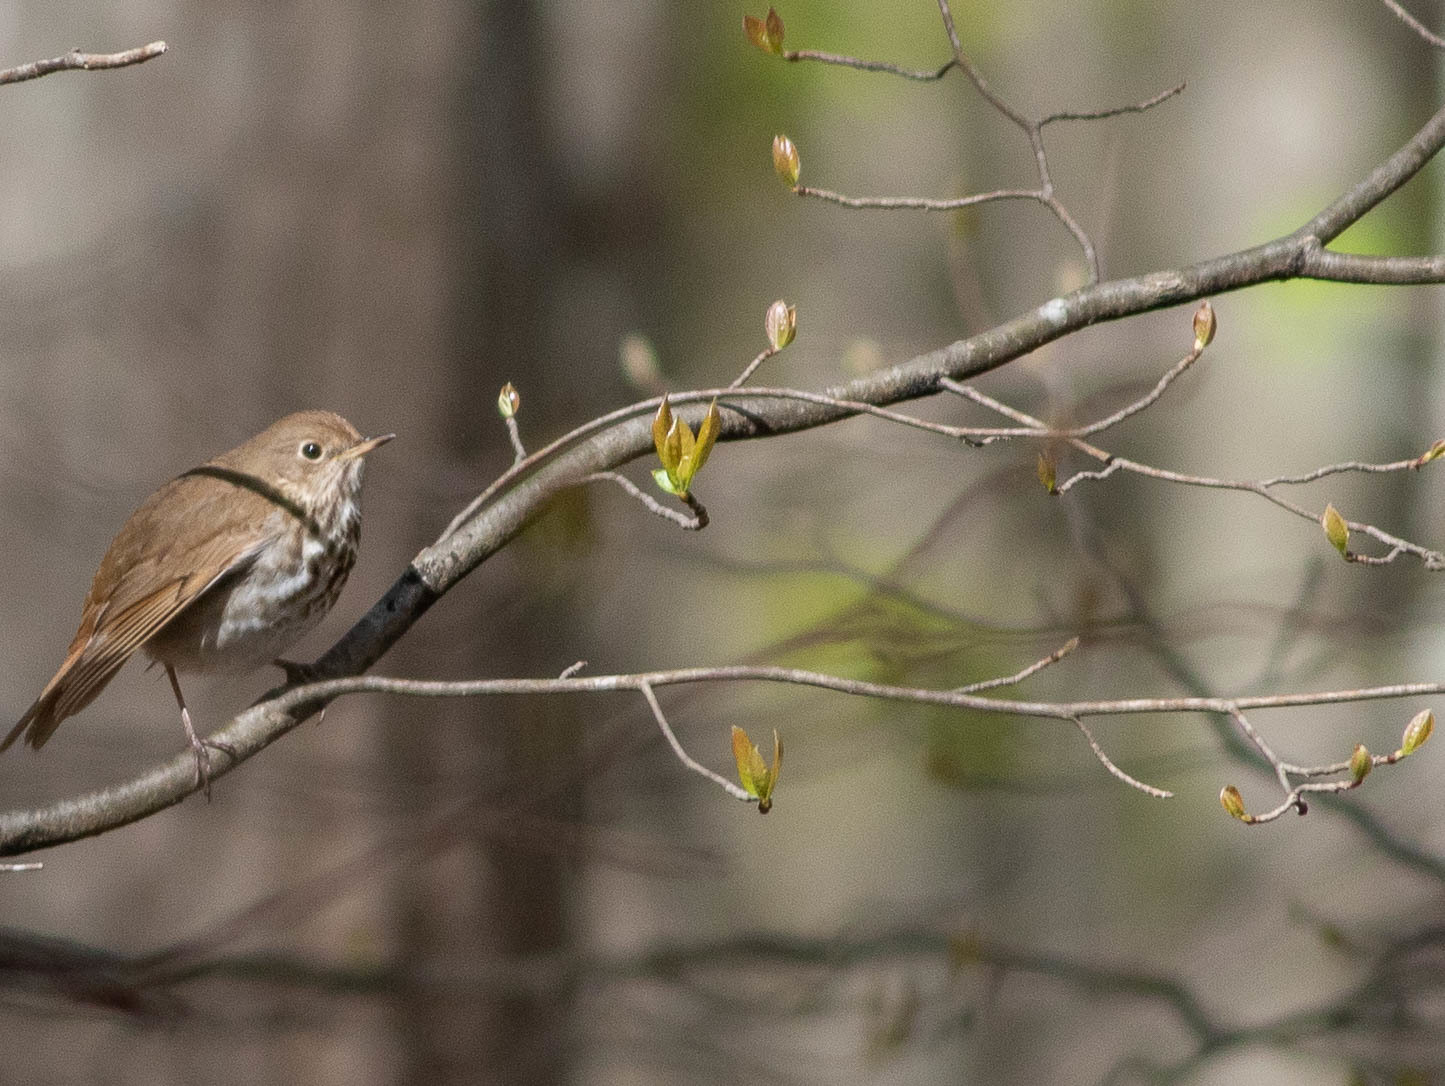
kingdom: Animalia
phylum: Chordata
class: Aves
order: Passeriformes
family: Turdidae
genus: Catharus
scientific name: Catharus guttatus
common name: Hermit thrush
